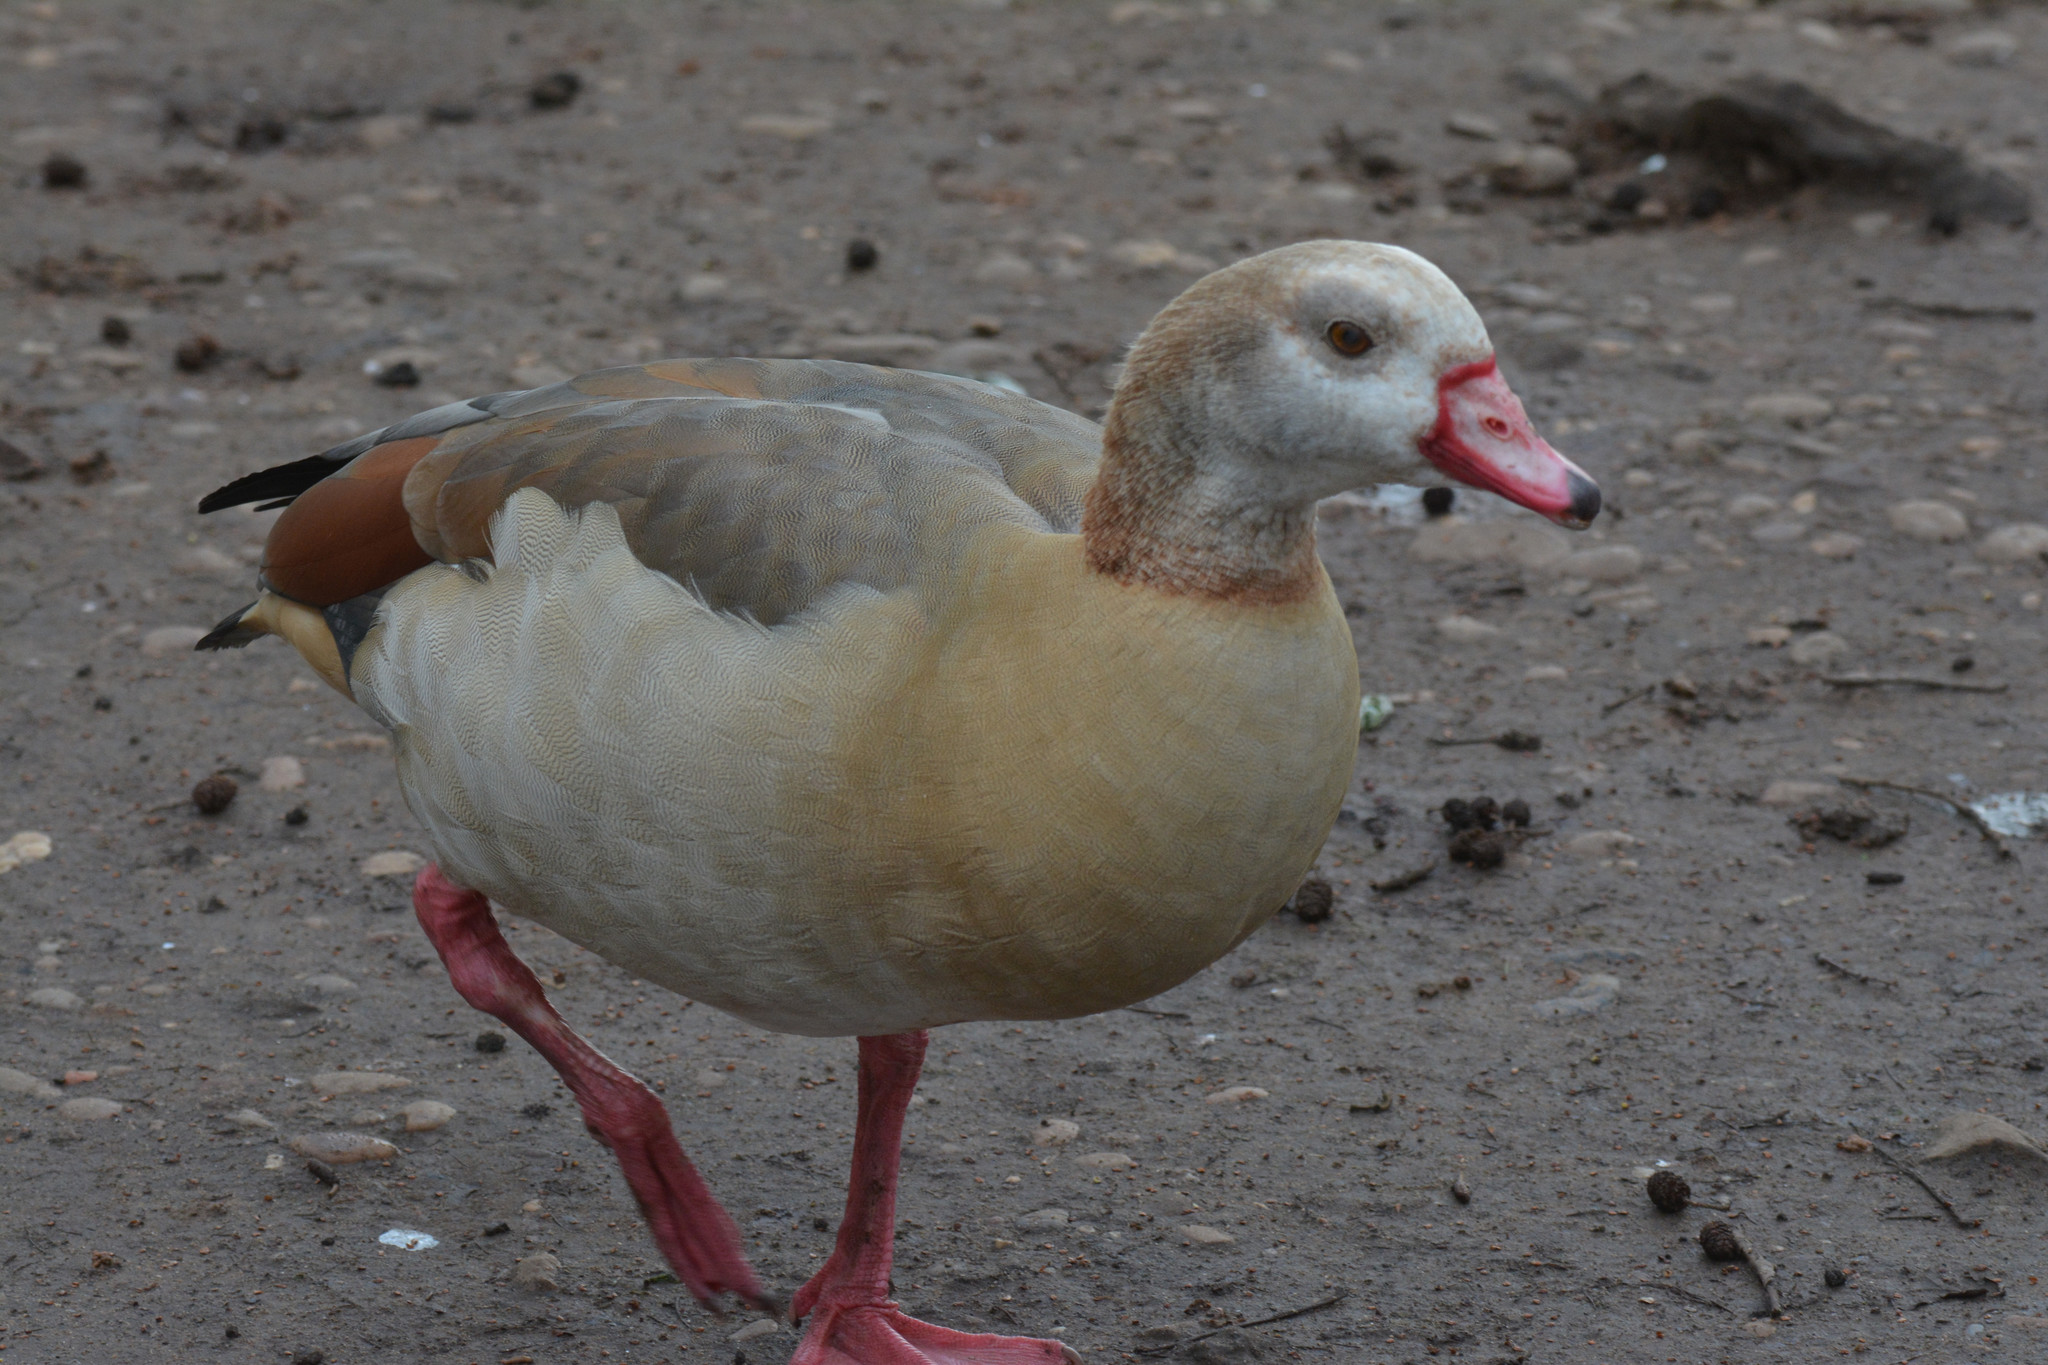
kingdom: Animalia
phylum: Chordata
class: Aves
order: Anseriformes
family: Anatidae
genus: Alopochen
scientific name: Alopochen aegyptiaca
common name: Egyptian goose
